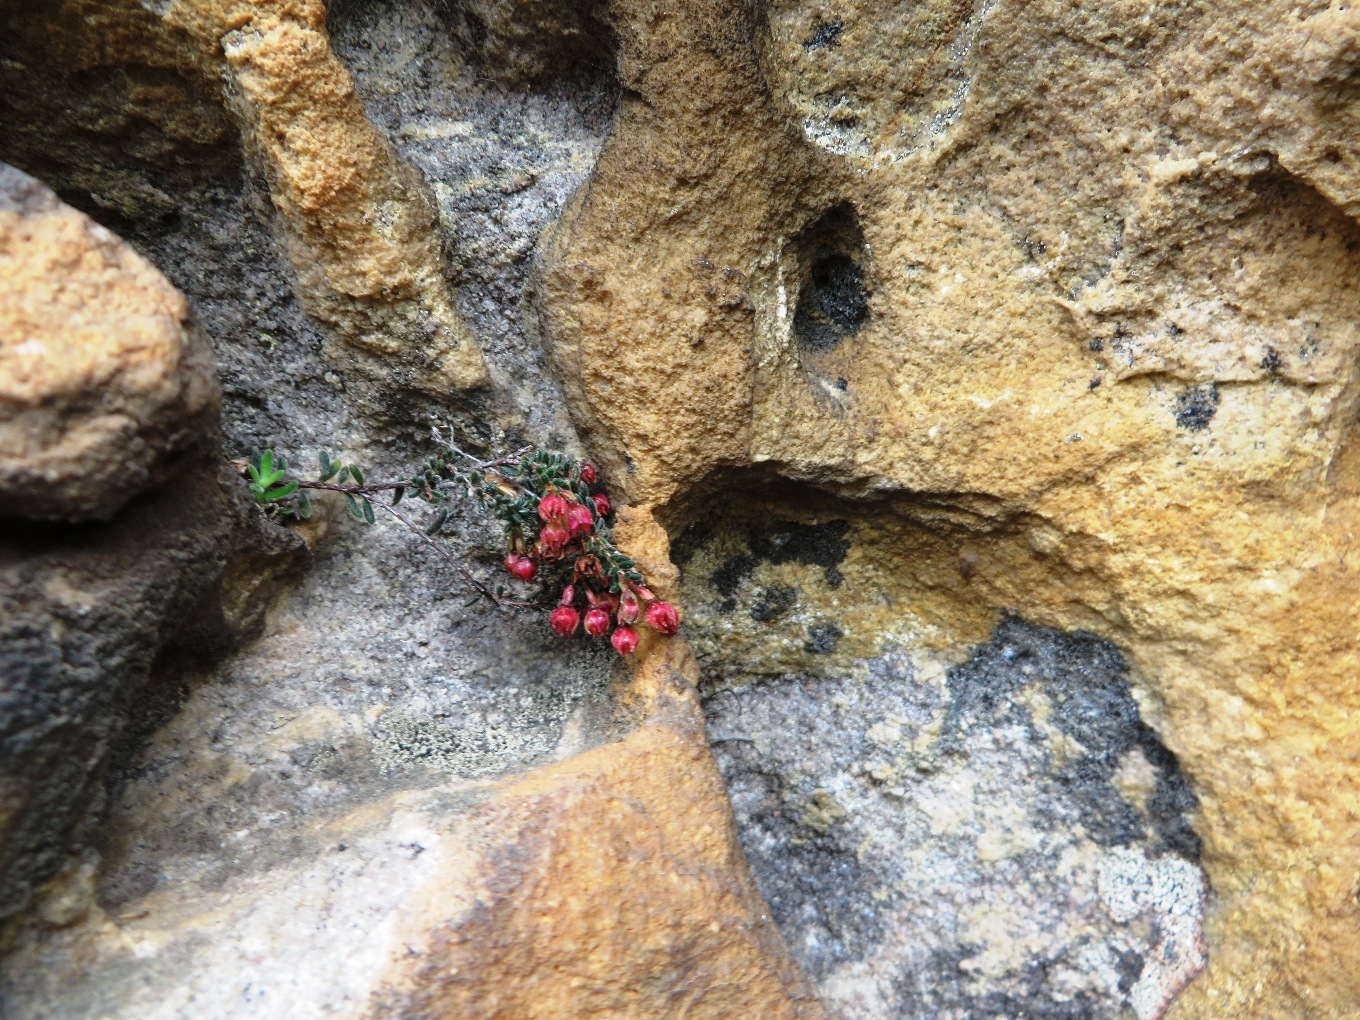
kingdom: Plantae
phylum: Tracheophyta
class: Magnoliopsida
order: Ericales
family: Ericaceae
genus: Erica
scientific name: Erica oreophila
